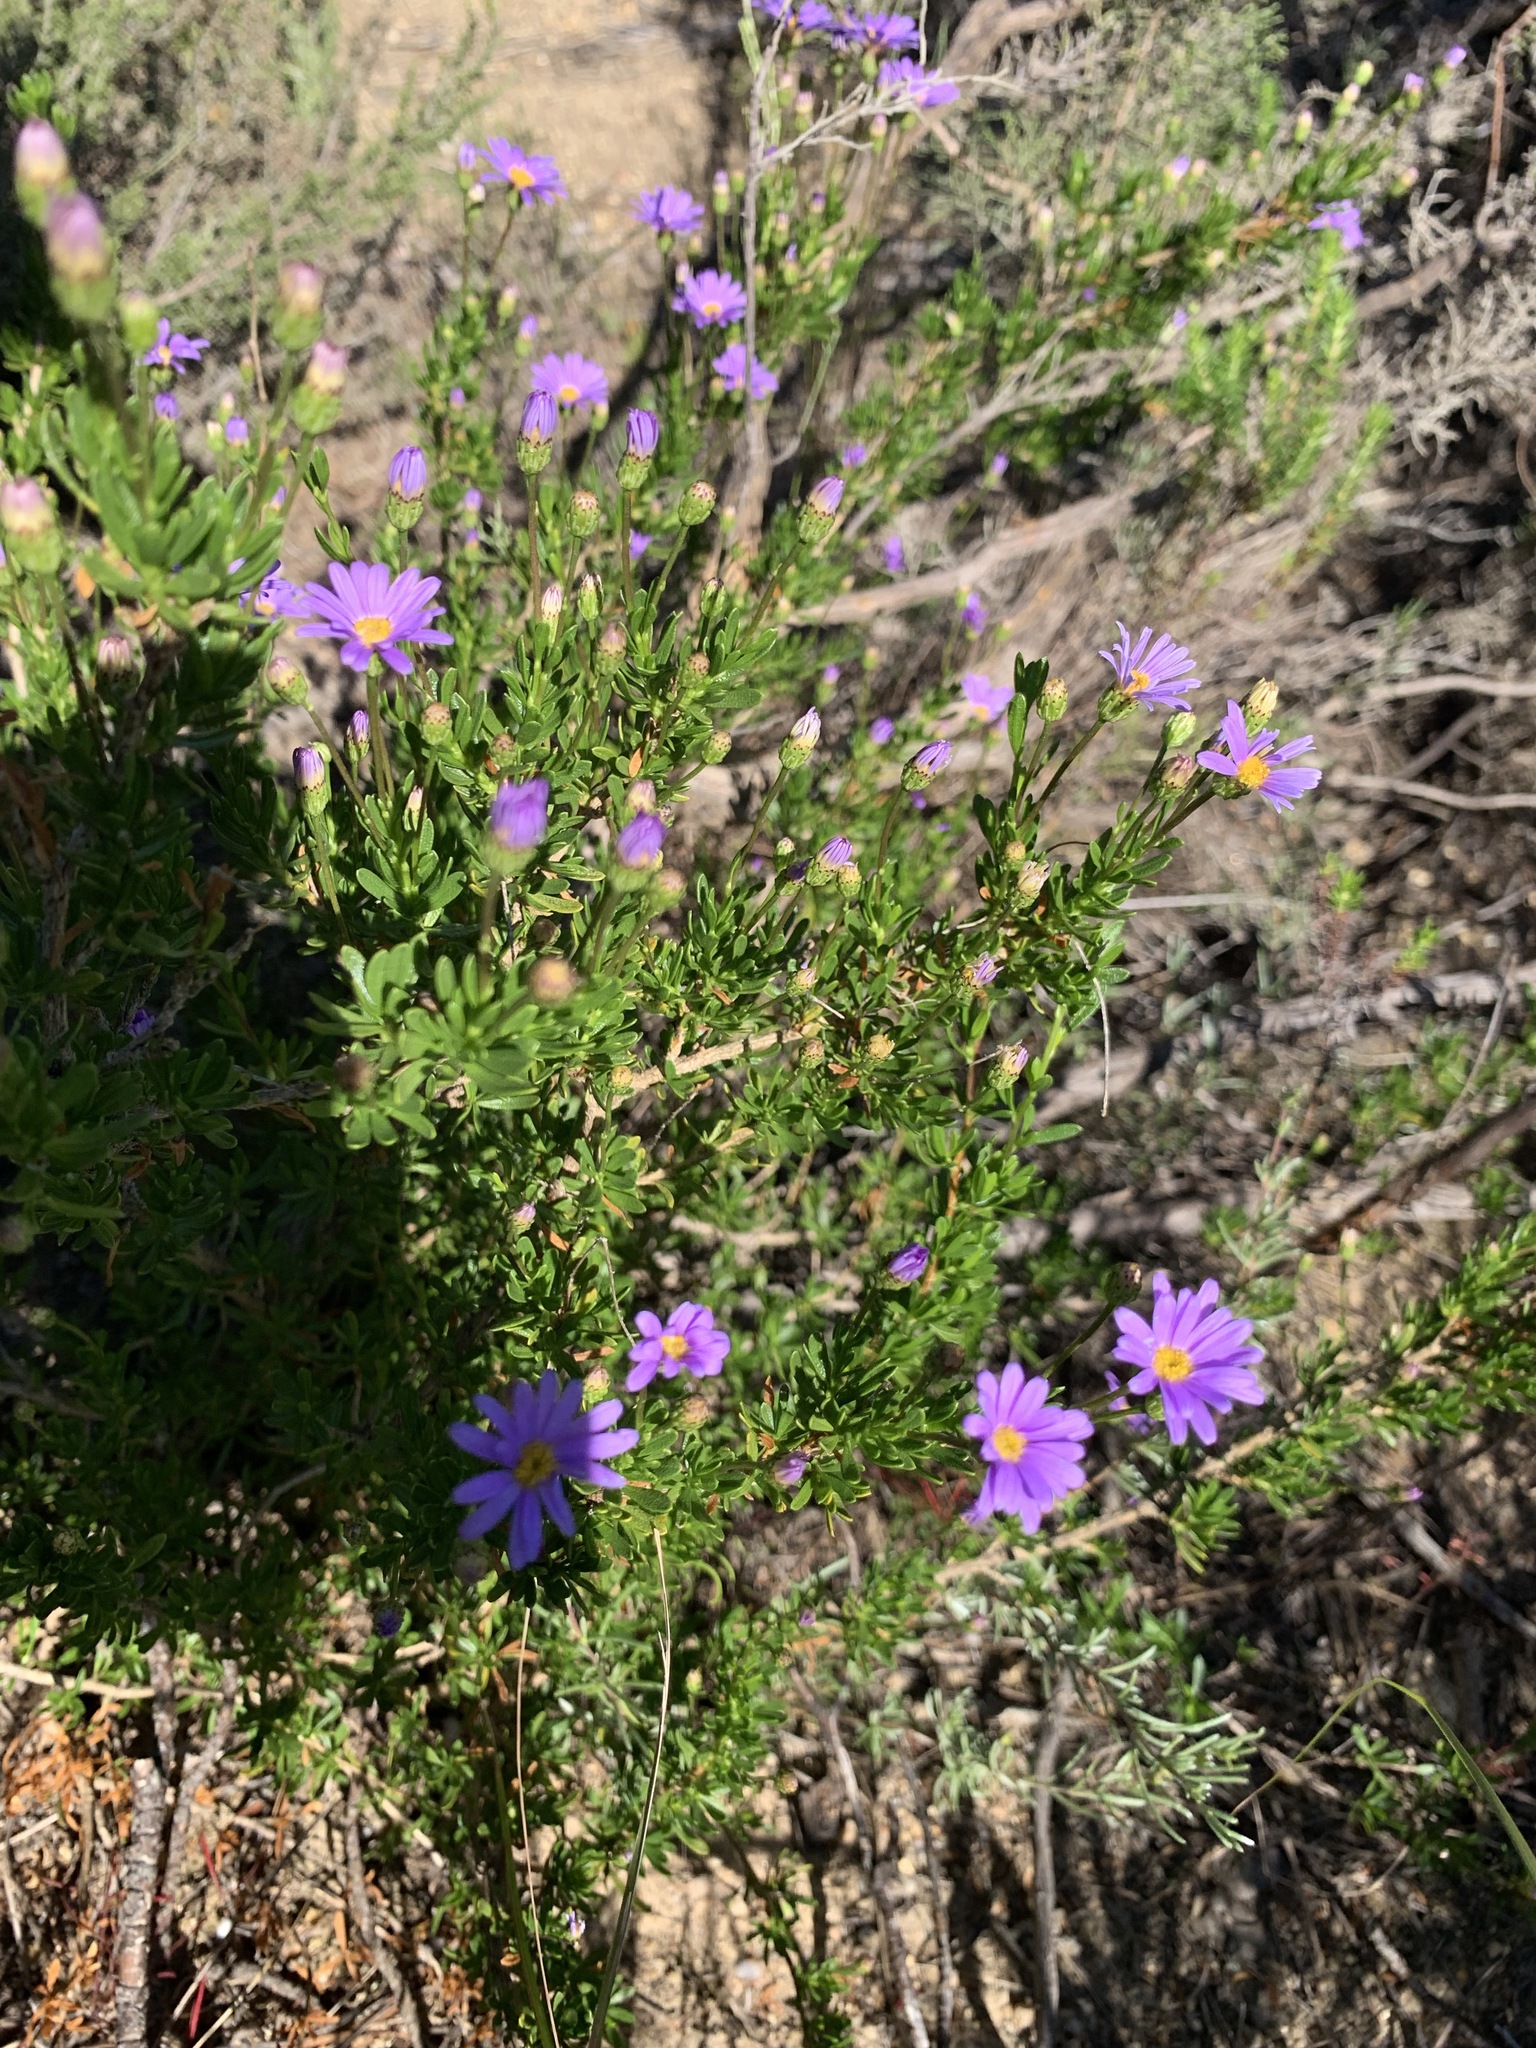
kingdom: Plantae
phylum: Tracheophyta
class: Magnoliopsida
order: Asterales
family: Asteraceae
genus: Felicia
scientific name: Felicia fruticosa
